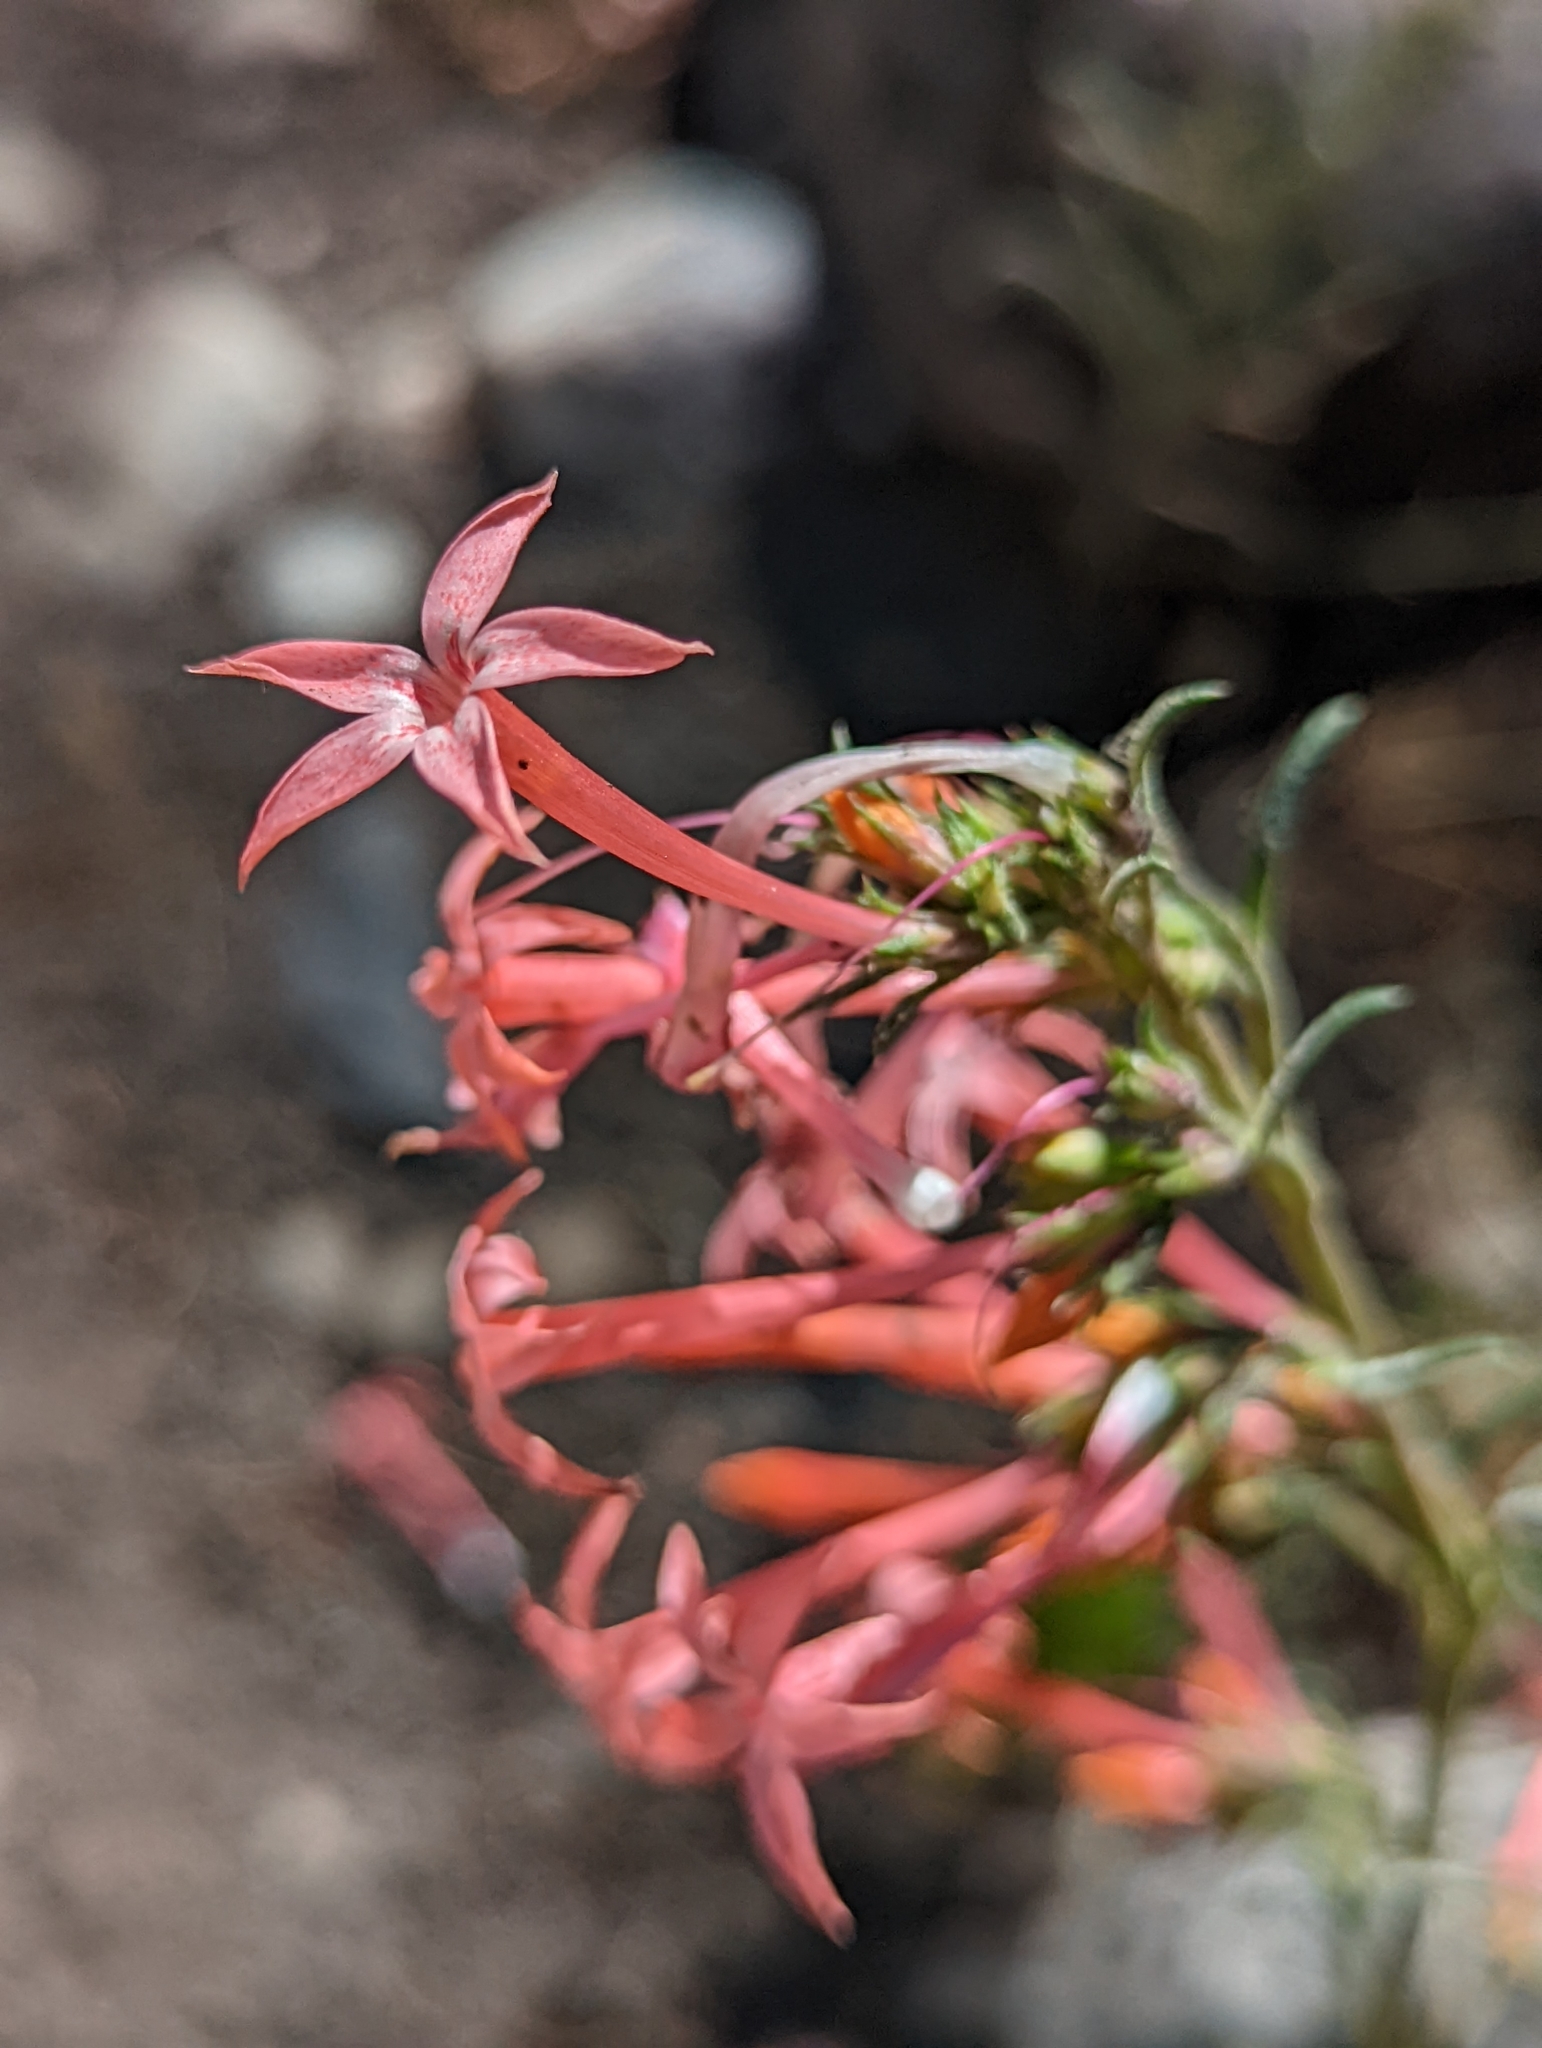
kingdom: Plantae
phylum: Tracheophyta
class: Magnoliopsida
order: Ericales
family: Polemoniaceae
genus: Ipomopsis
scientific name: Ipomopsis tenuituba
